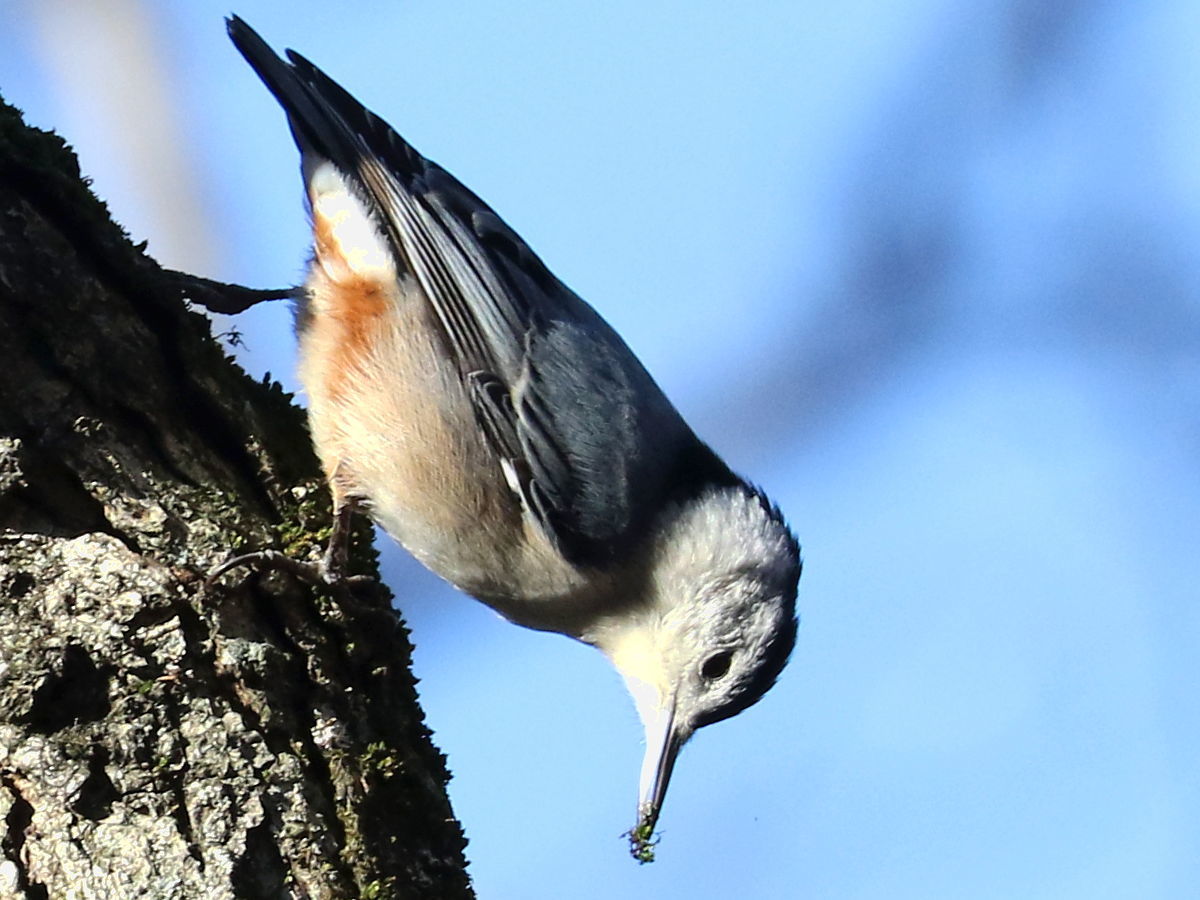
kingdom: Animalia
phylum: Chordata
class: Aves
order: Passeriformes
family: Sittidae
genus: Sitta
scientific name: Sitta carolinensis
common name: White-breasted nuthatch
